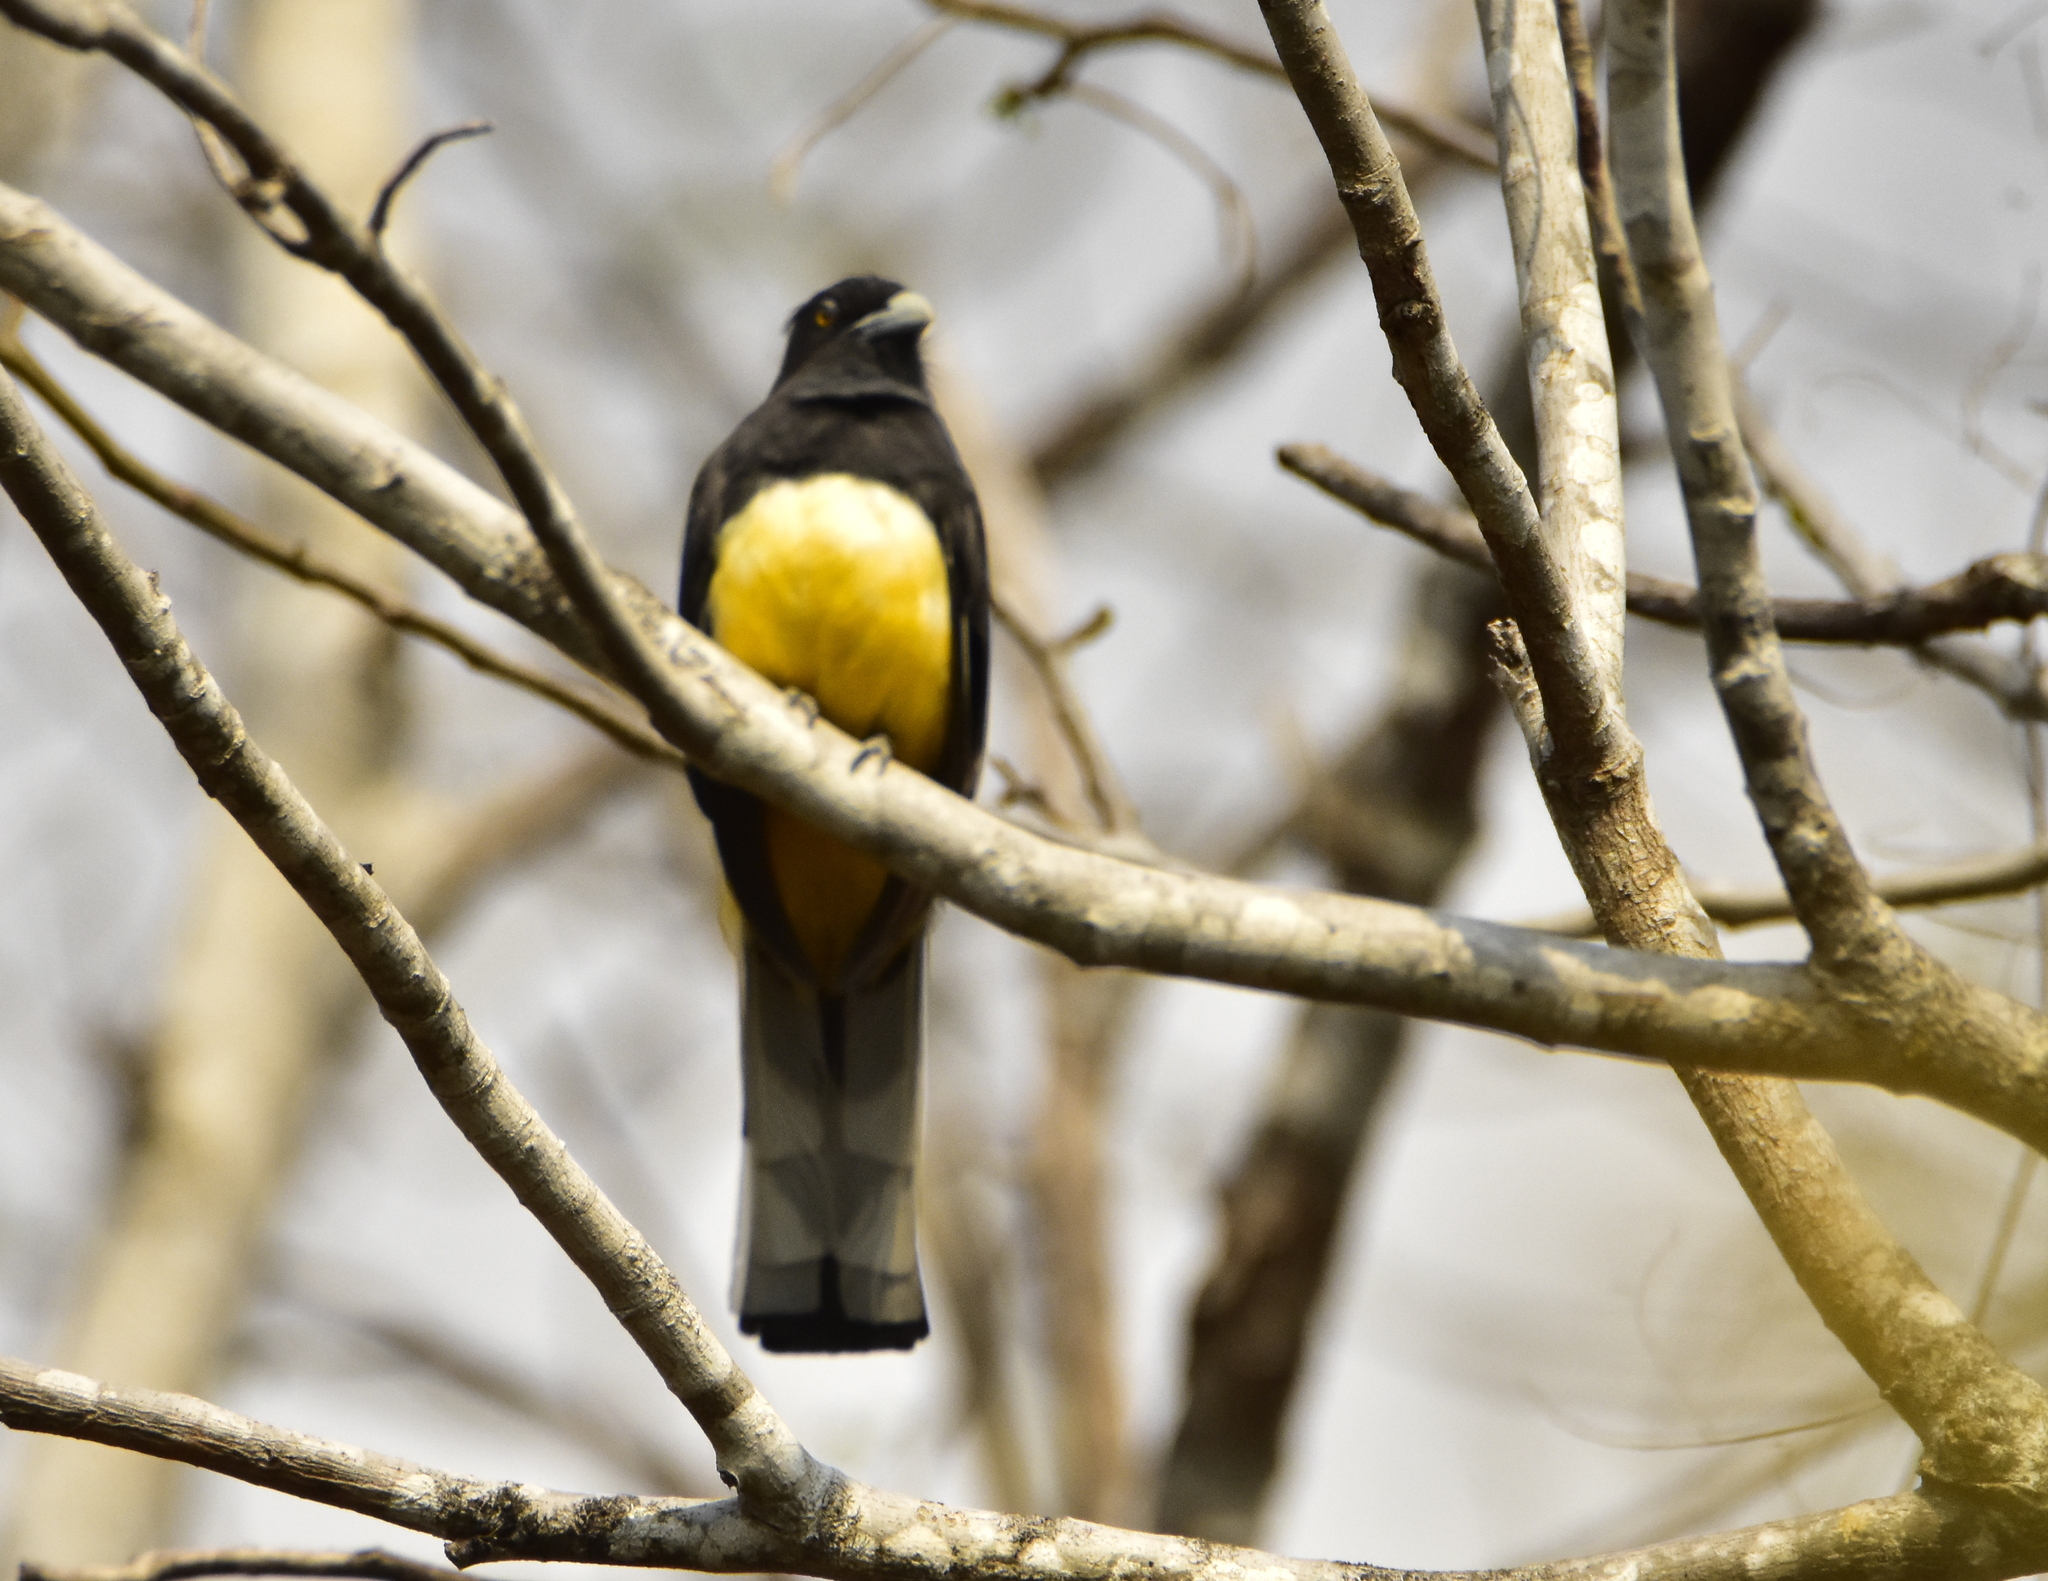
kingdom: Animalia
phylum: Chordata
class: Aves
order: Trogoniformes
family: Trogonidae
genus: Trogon
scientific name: Trogon citreolus
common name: Citreoline trogon
